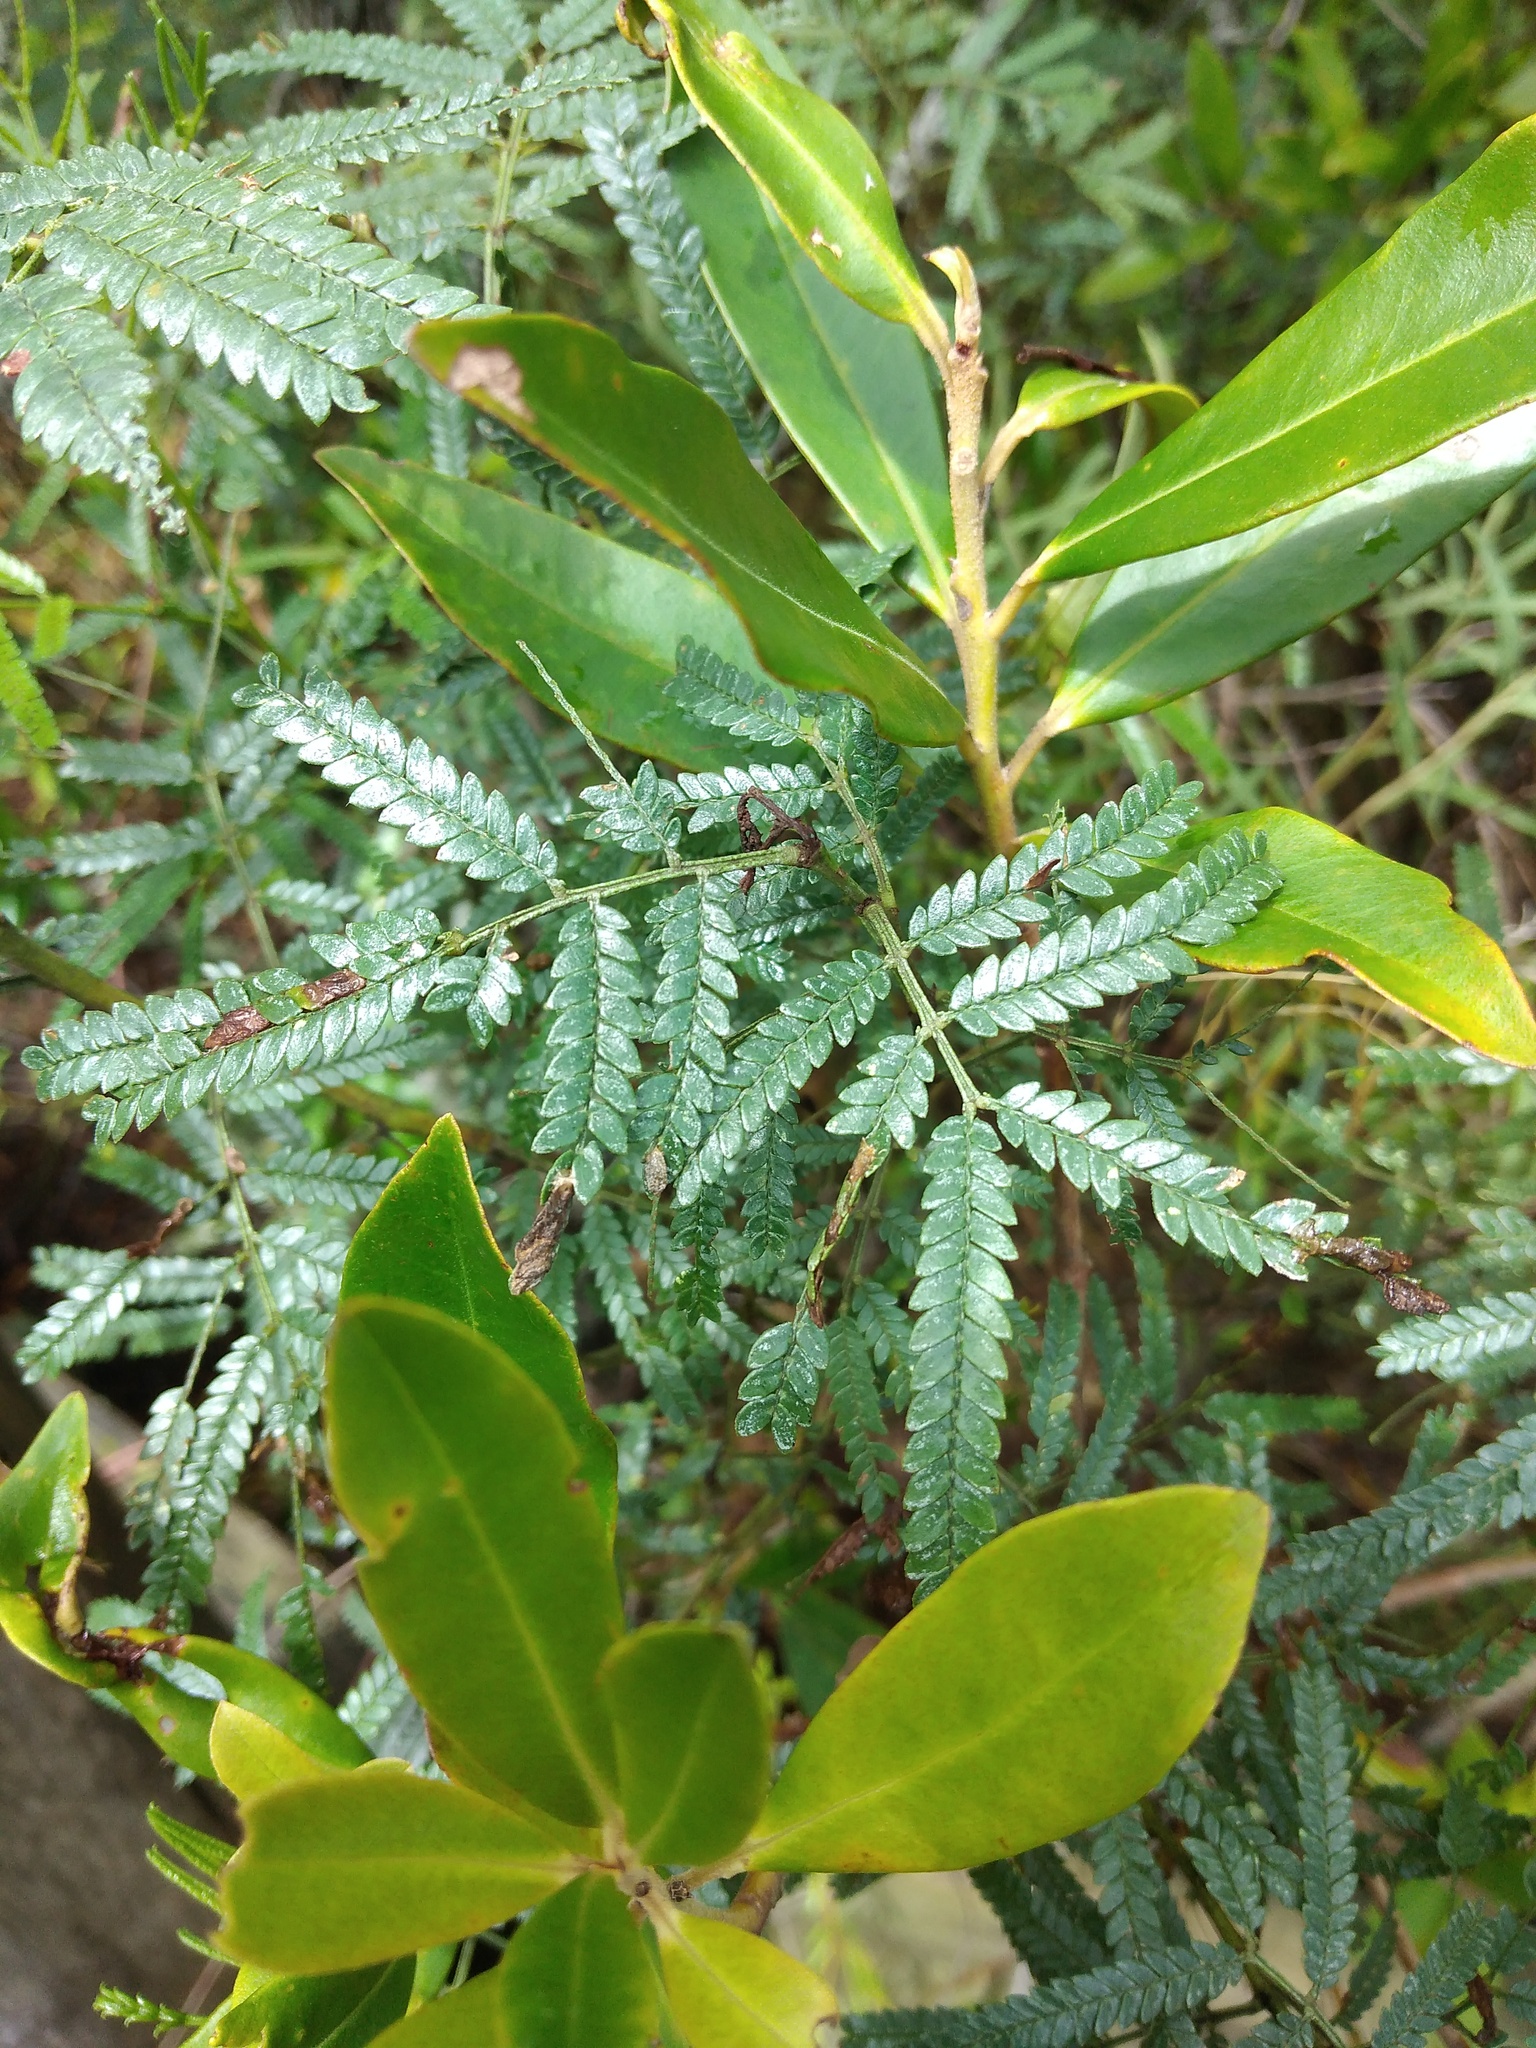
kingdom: Plantae
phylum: Tracheophyta
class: Magnoliopsida
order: Fabales
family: Fabaceae
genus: Mimosa
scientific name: Mimosa bifurca
